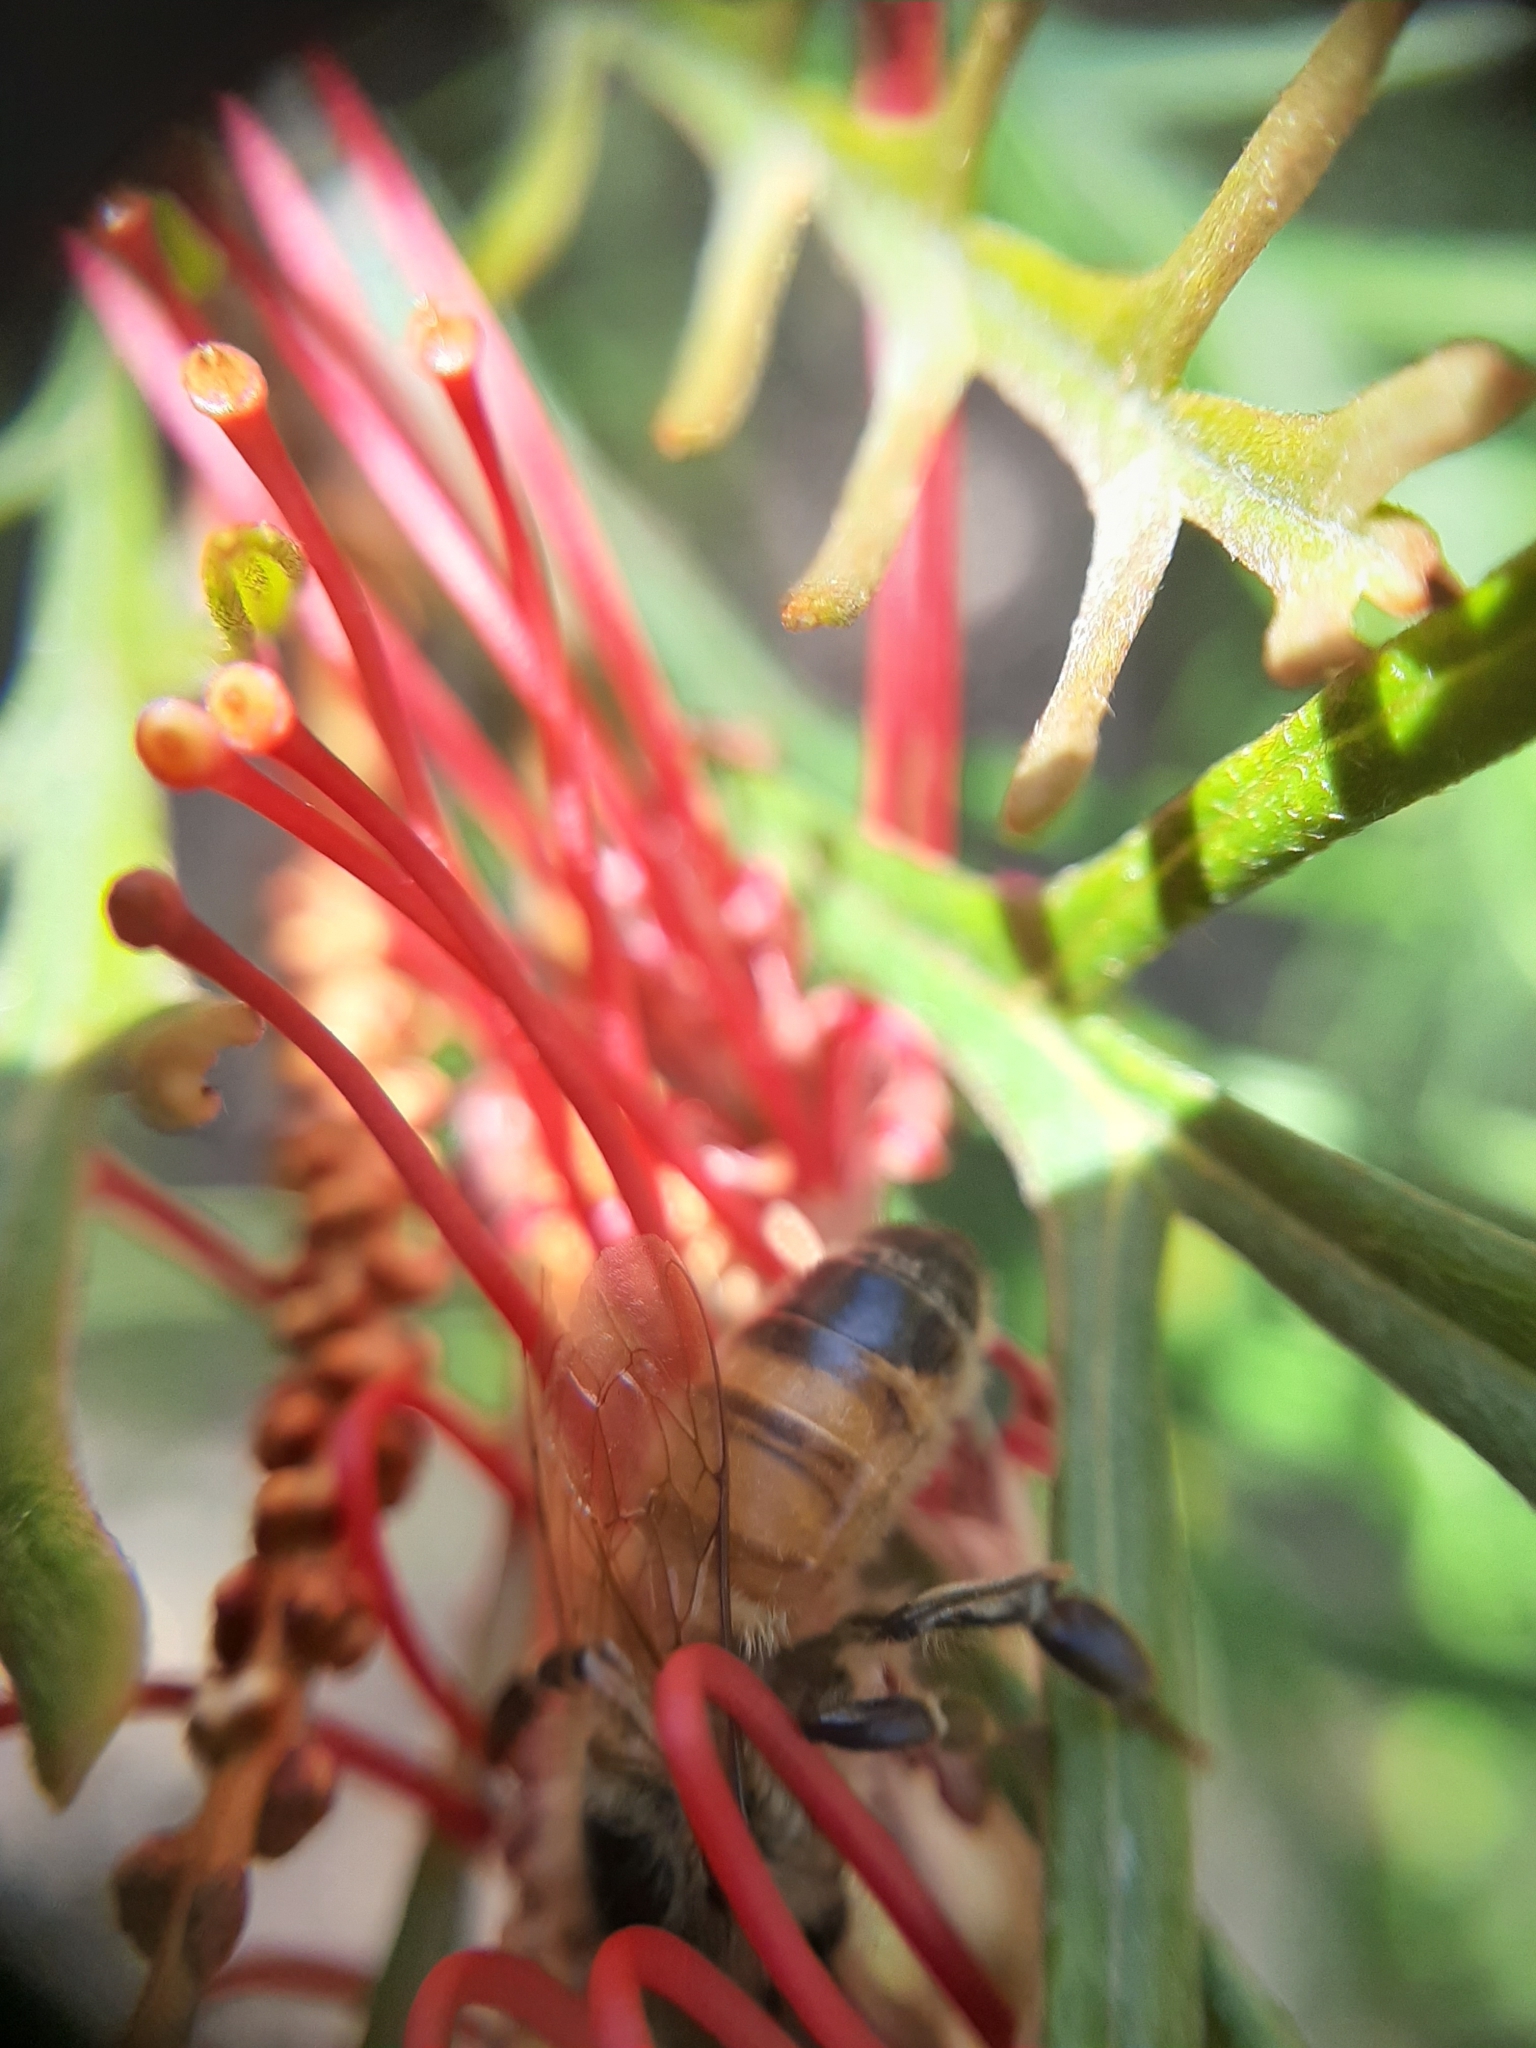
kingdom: Animalia
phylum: Arthropoda
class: Insecta
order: Hymenoptera
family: Apidae
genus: Apis
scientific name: Apis mellifera
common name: Honey bee
